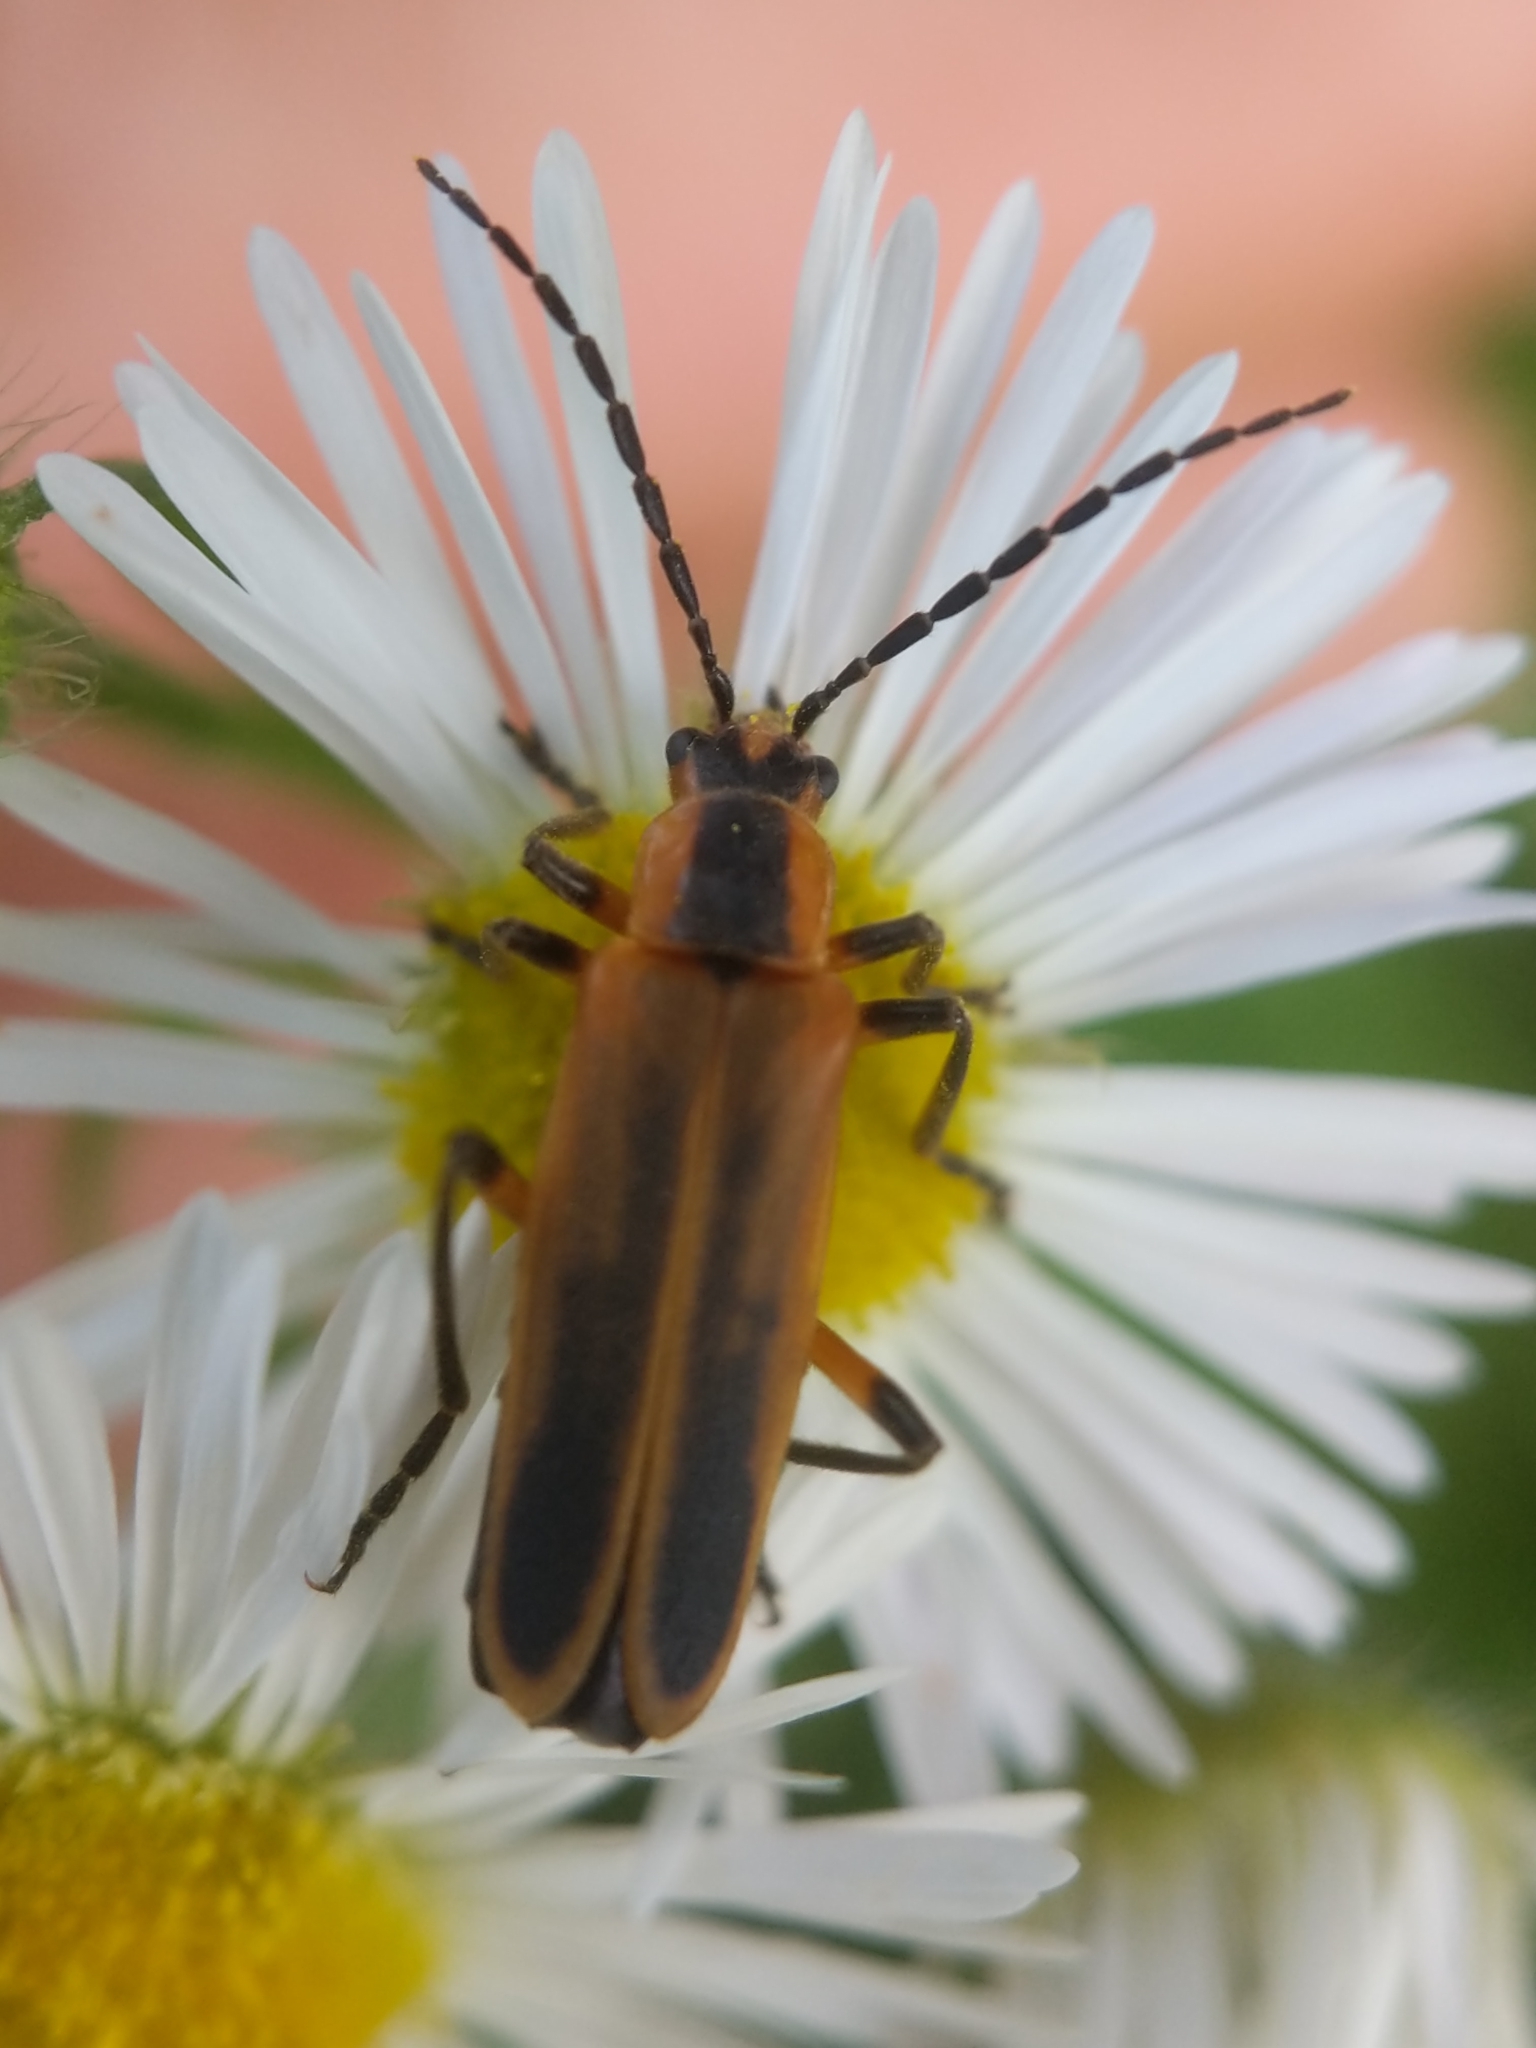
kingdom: Animalia
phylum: Arthropoda
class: Insecta
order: Coleoptera
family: Cantharidae
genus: Chauliognathus
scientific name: Chauliognathus marginatus
